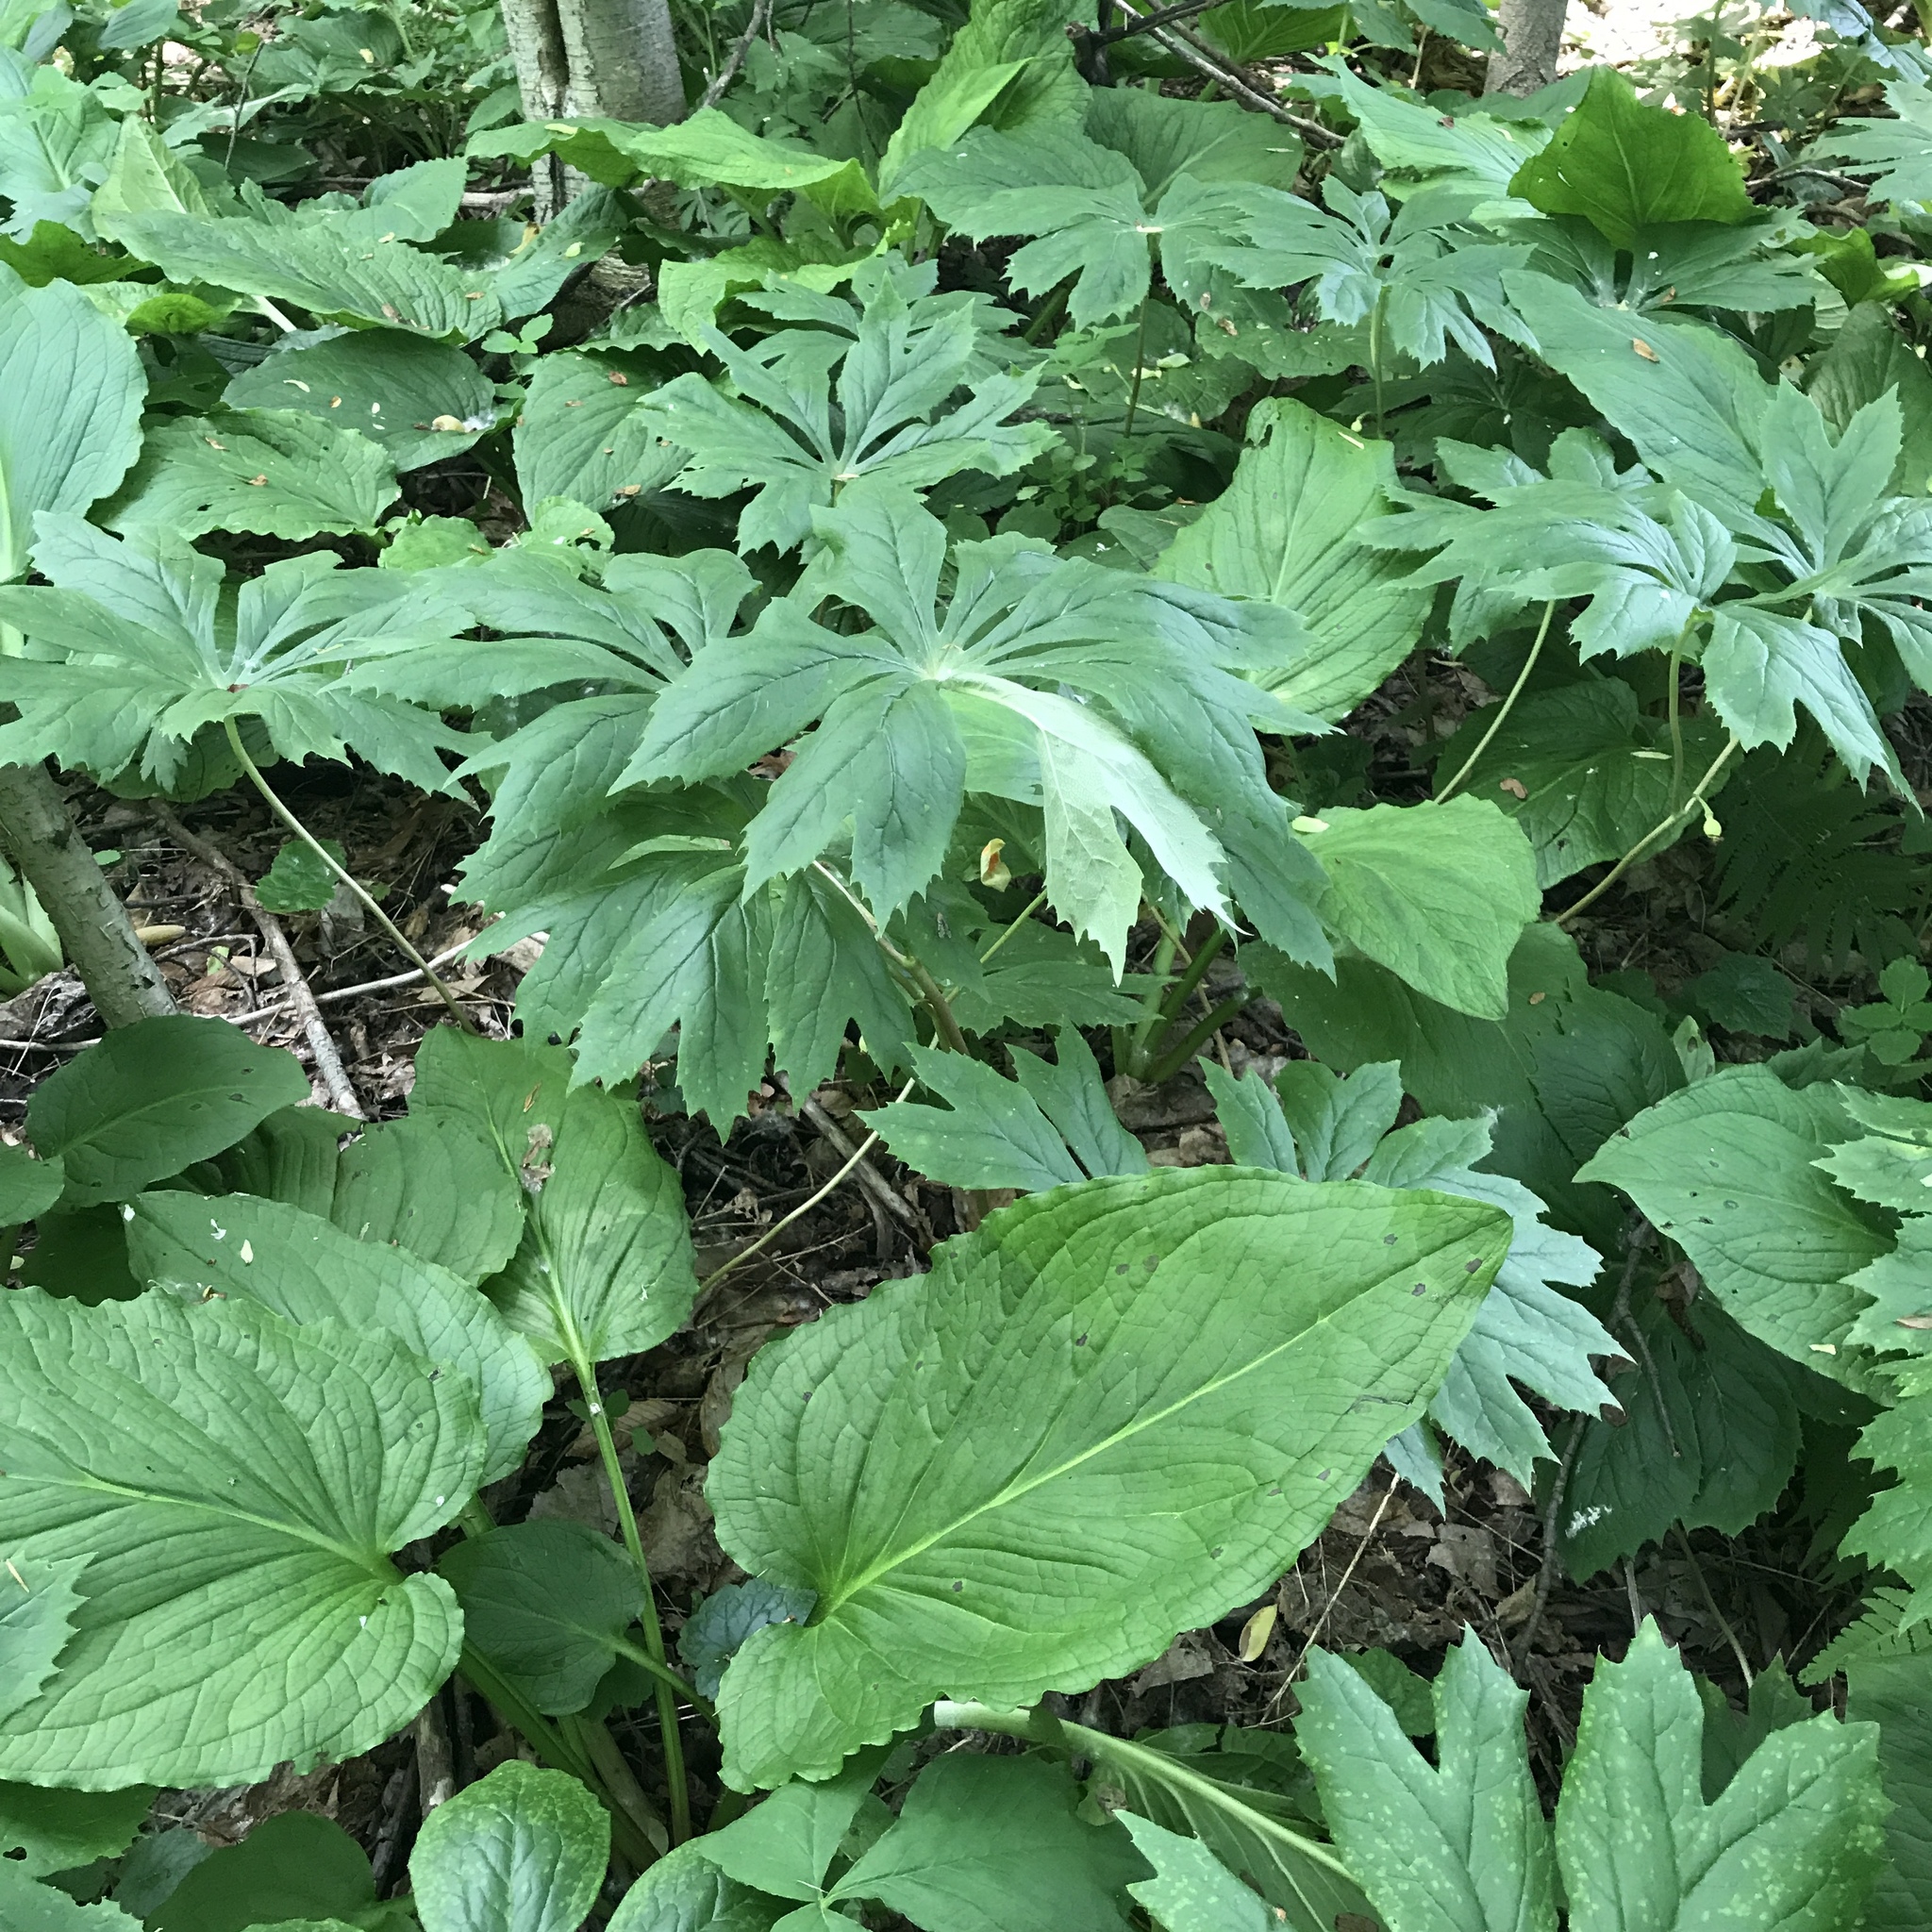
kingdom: Plantae
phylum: Tracheophyta
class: Magnoliopsida
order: Ranunculales
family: Berberidaceae
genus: Podophyllum
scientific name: Podophyllum peltatum
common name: Wild mandrake
